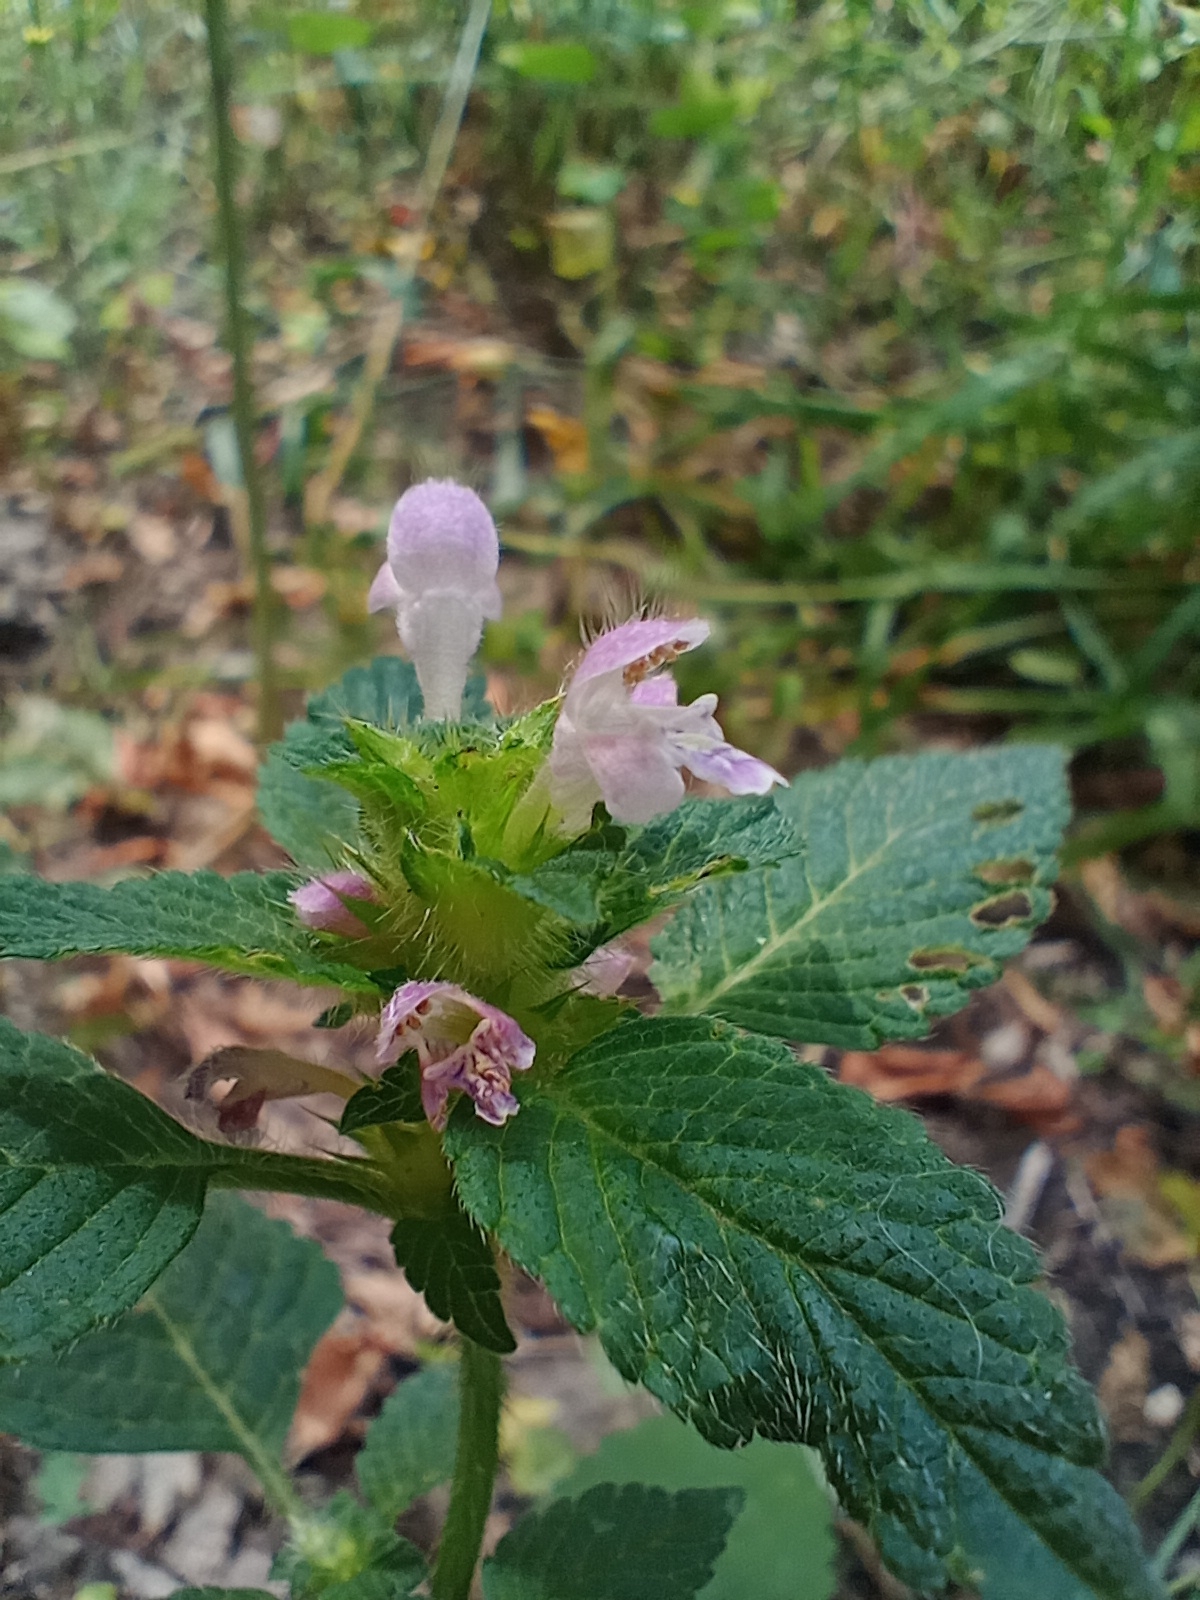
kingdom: Plantae
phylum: Tracheophyta
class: Magnoliopsida
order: Lamiales
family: Lamiaceae
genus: Galeopsis
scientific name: Galeopsis bifida
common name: Bifid hemp-nettle
